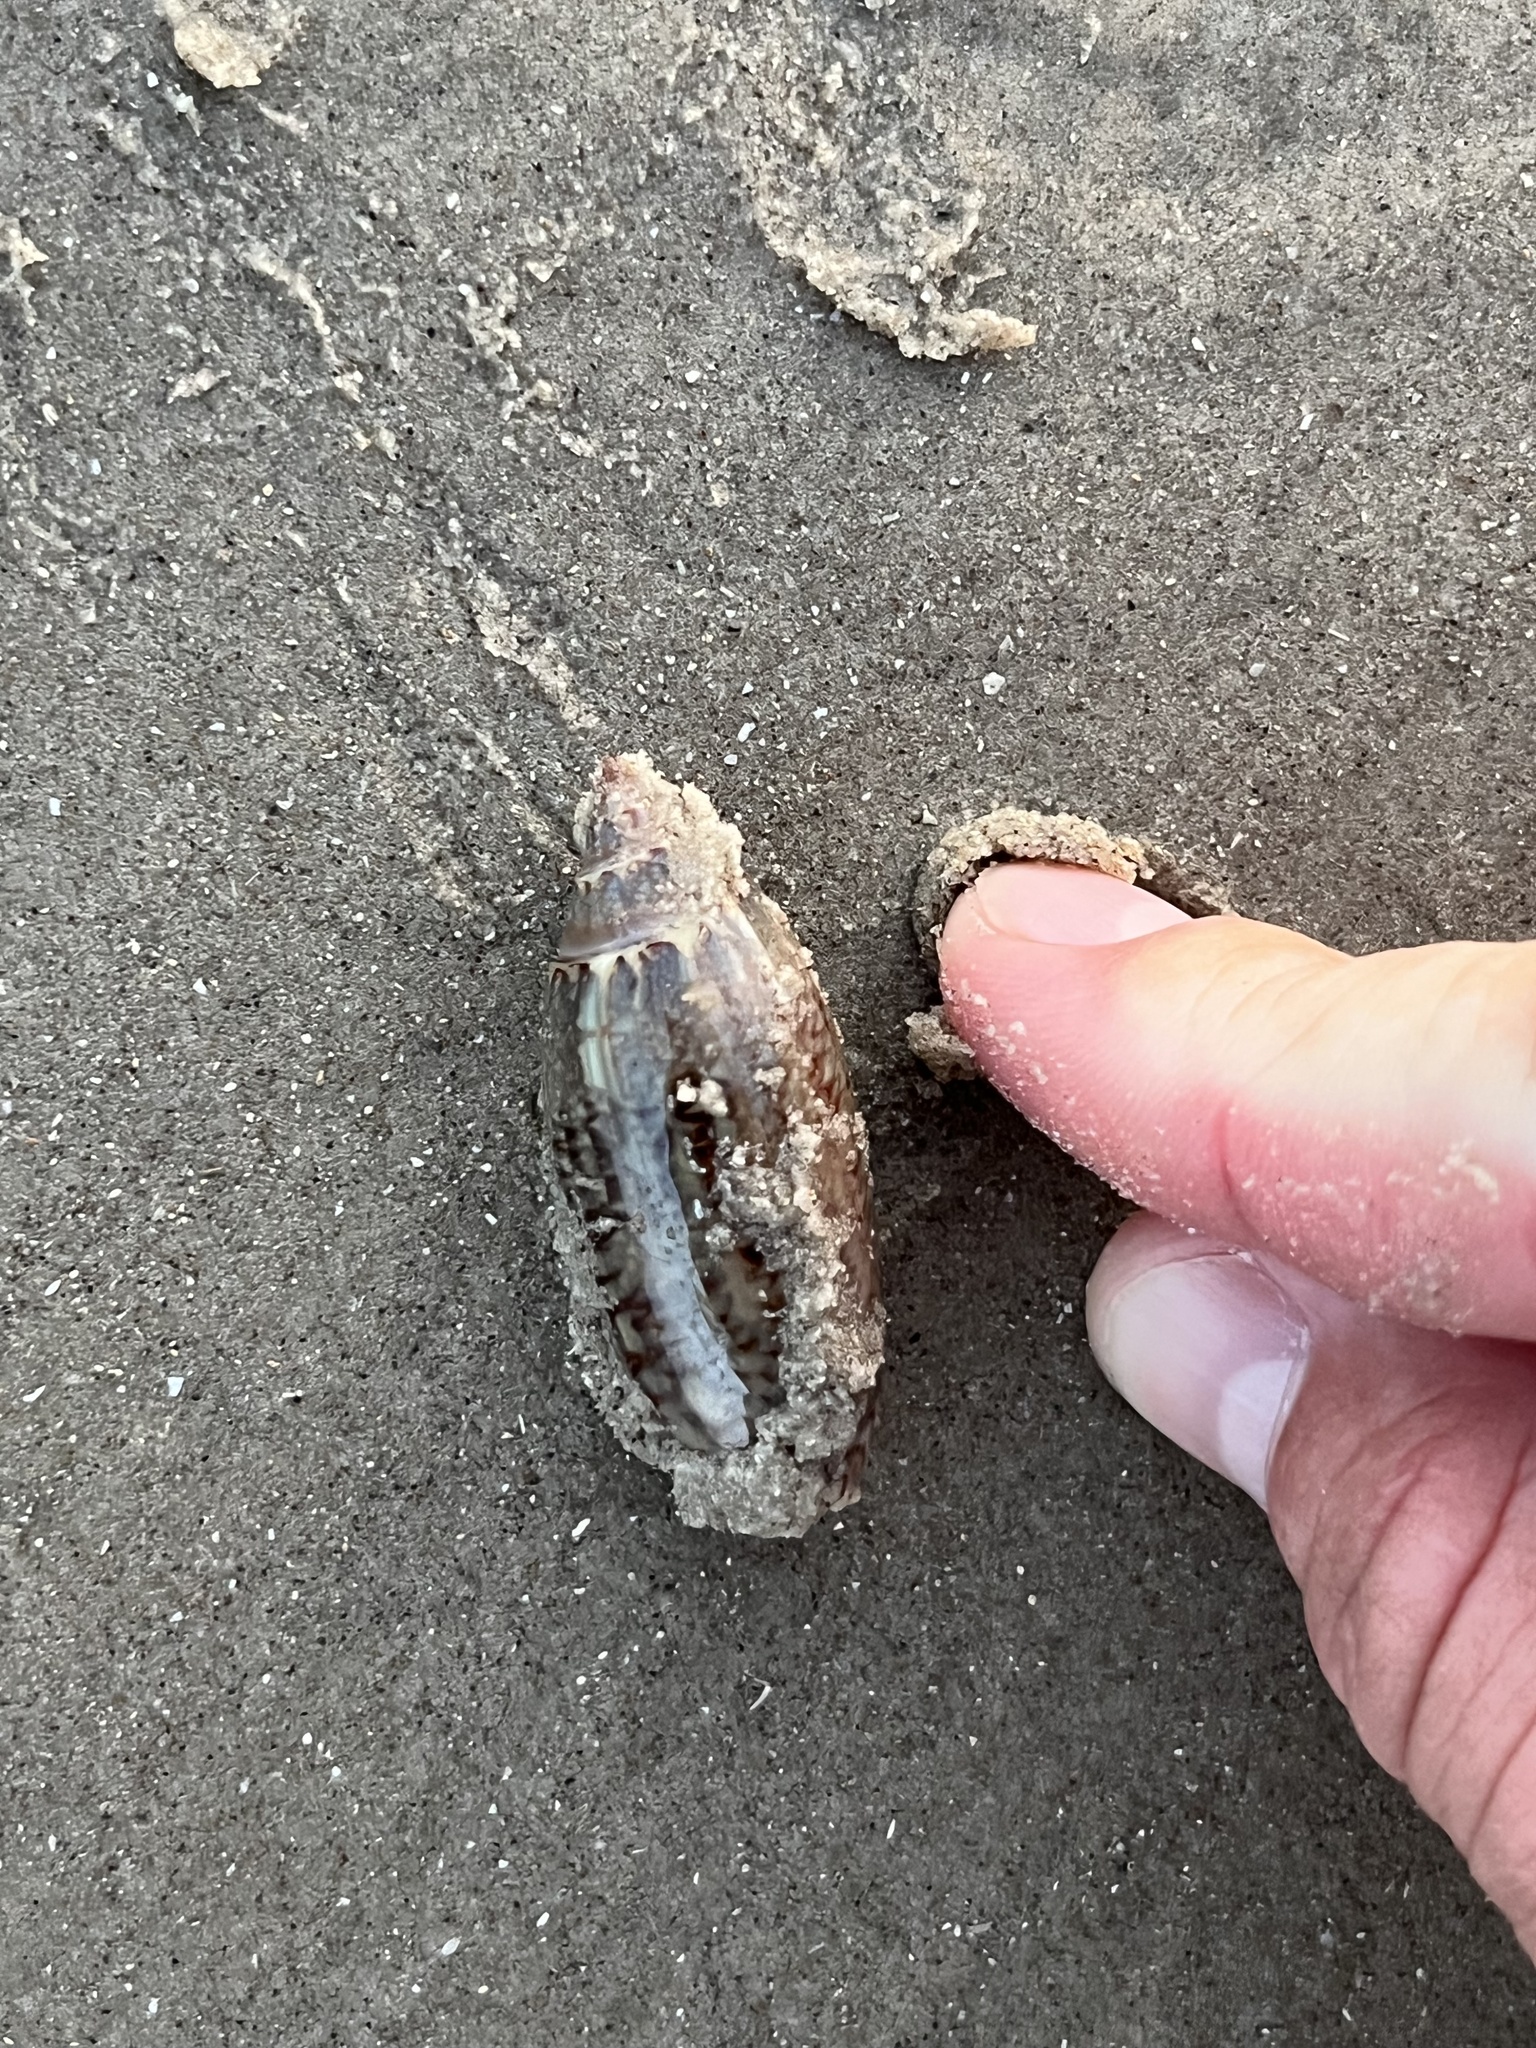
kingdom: Animalia
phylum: Mollusca
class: Gastropoda
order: Neogastropoda
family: Olividae
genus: Oliva
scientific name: Oliva sayana
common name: Lettered olive
